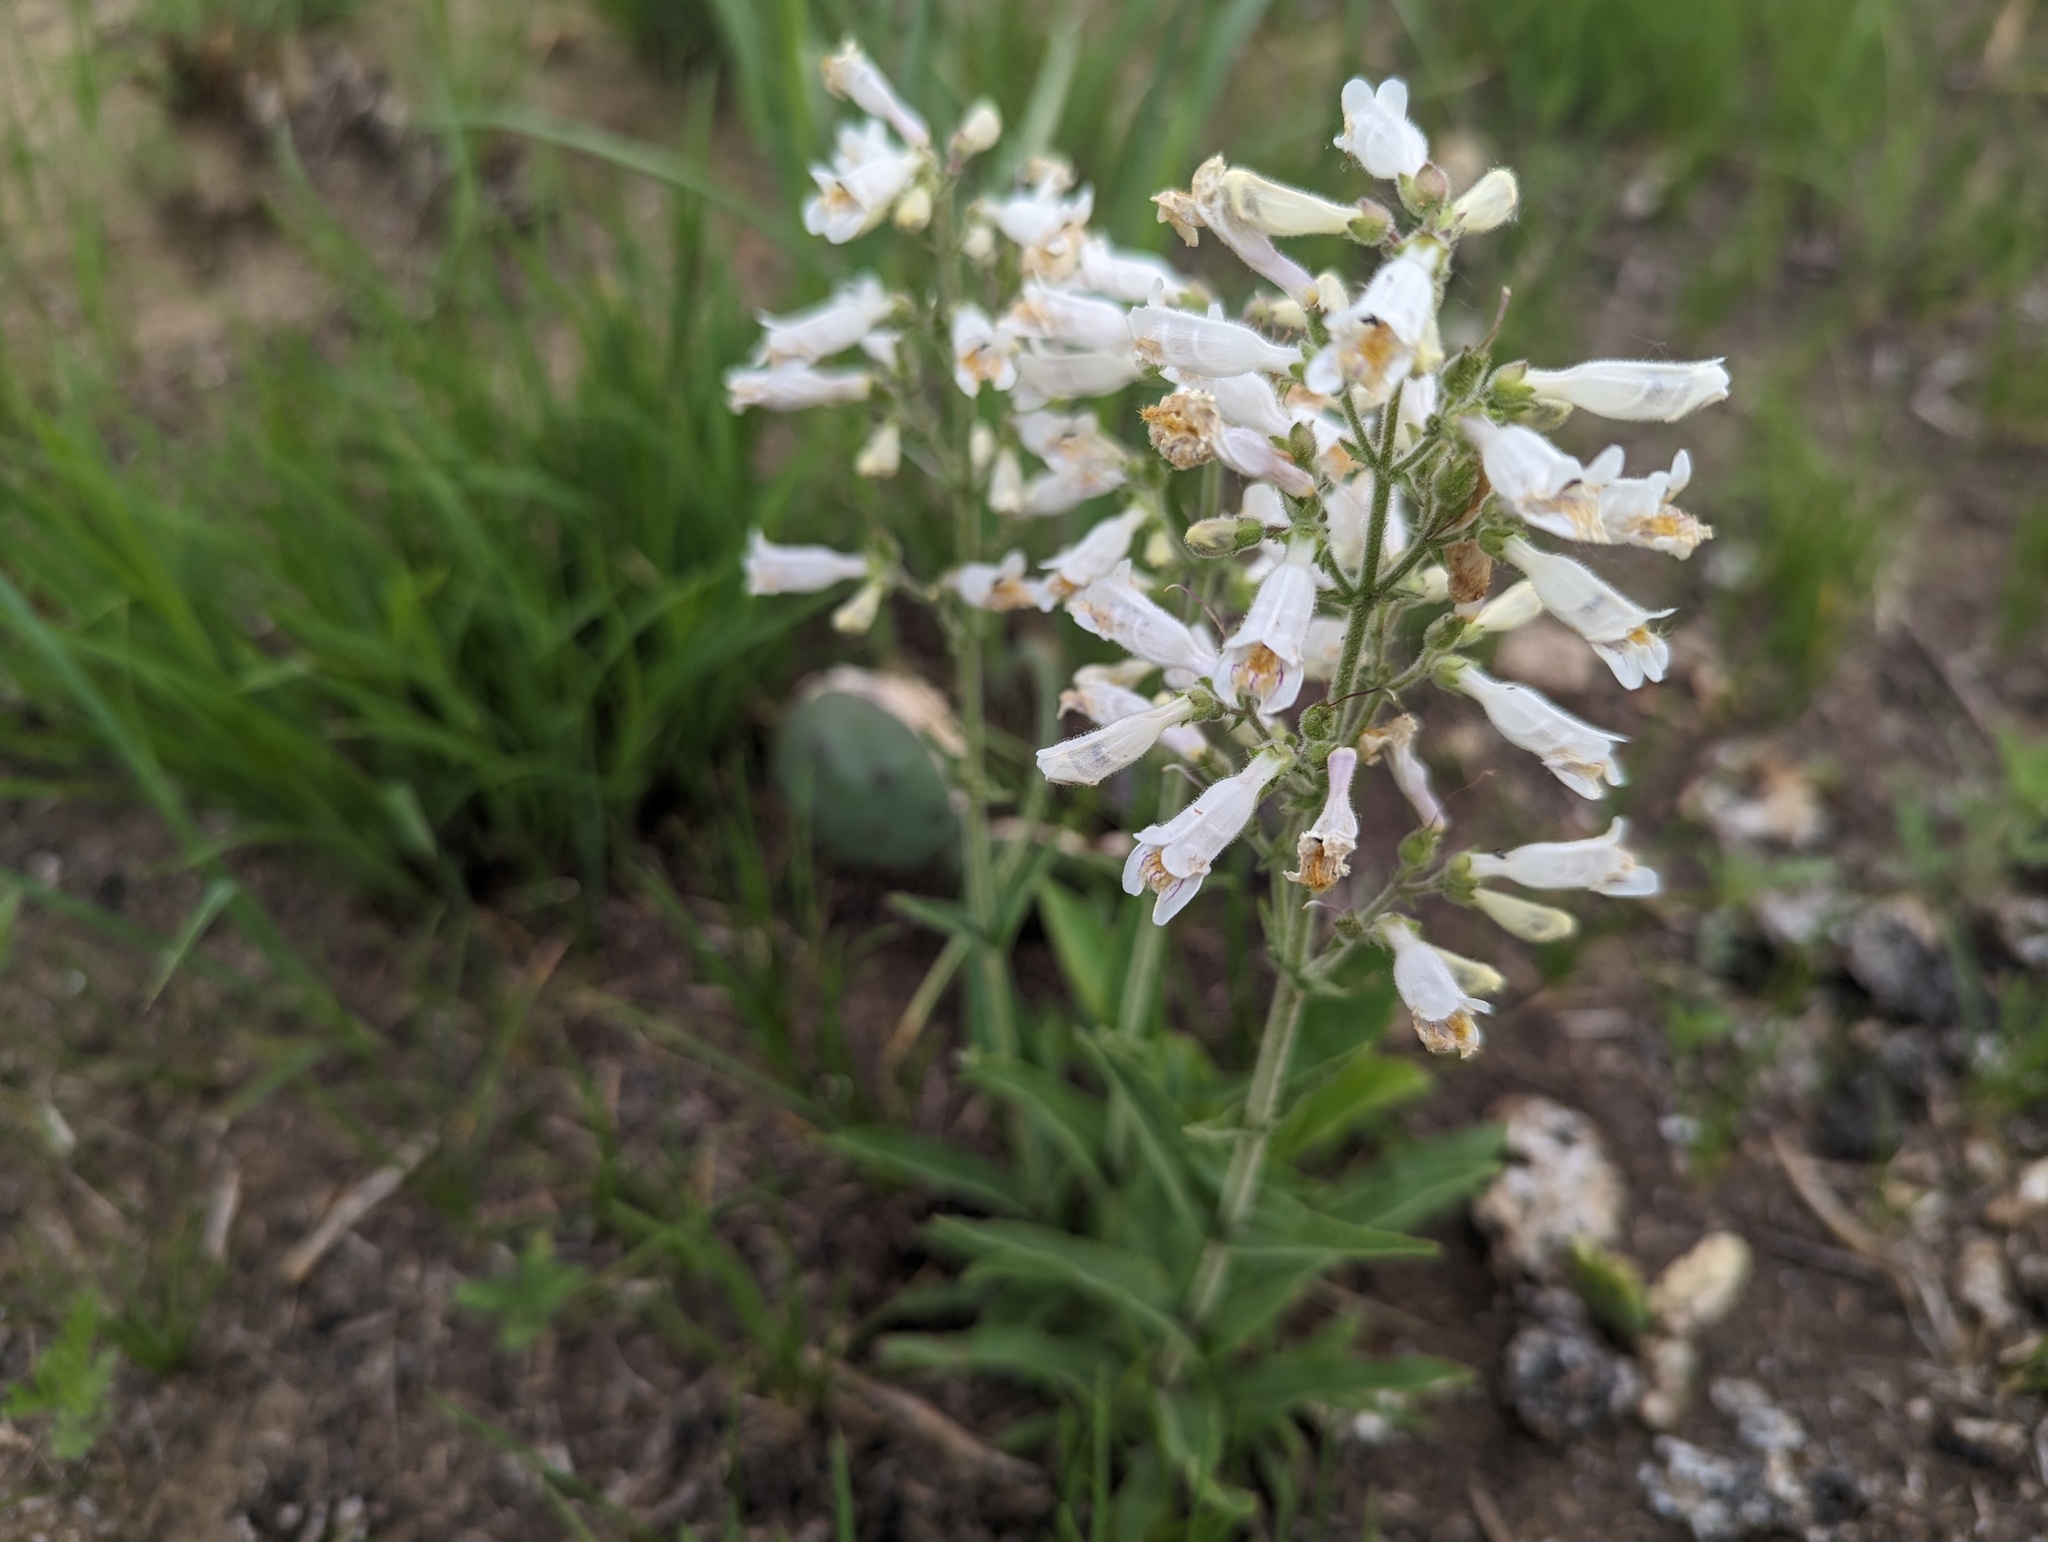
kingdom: Plantae
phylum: Tracheophyta
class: Magnoliopsida
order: Lamiales
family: Plantaginaceae
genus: Penstemon
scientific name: Penstemon pallidus
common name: Pale beardtongue
